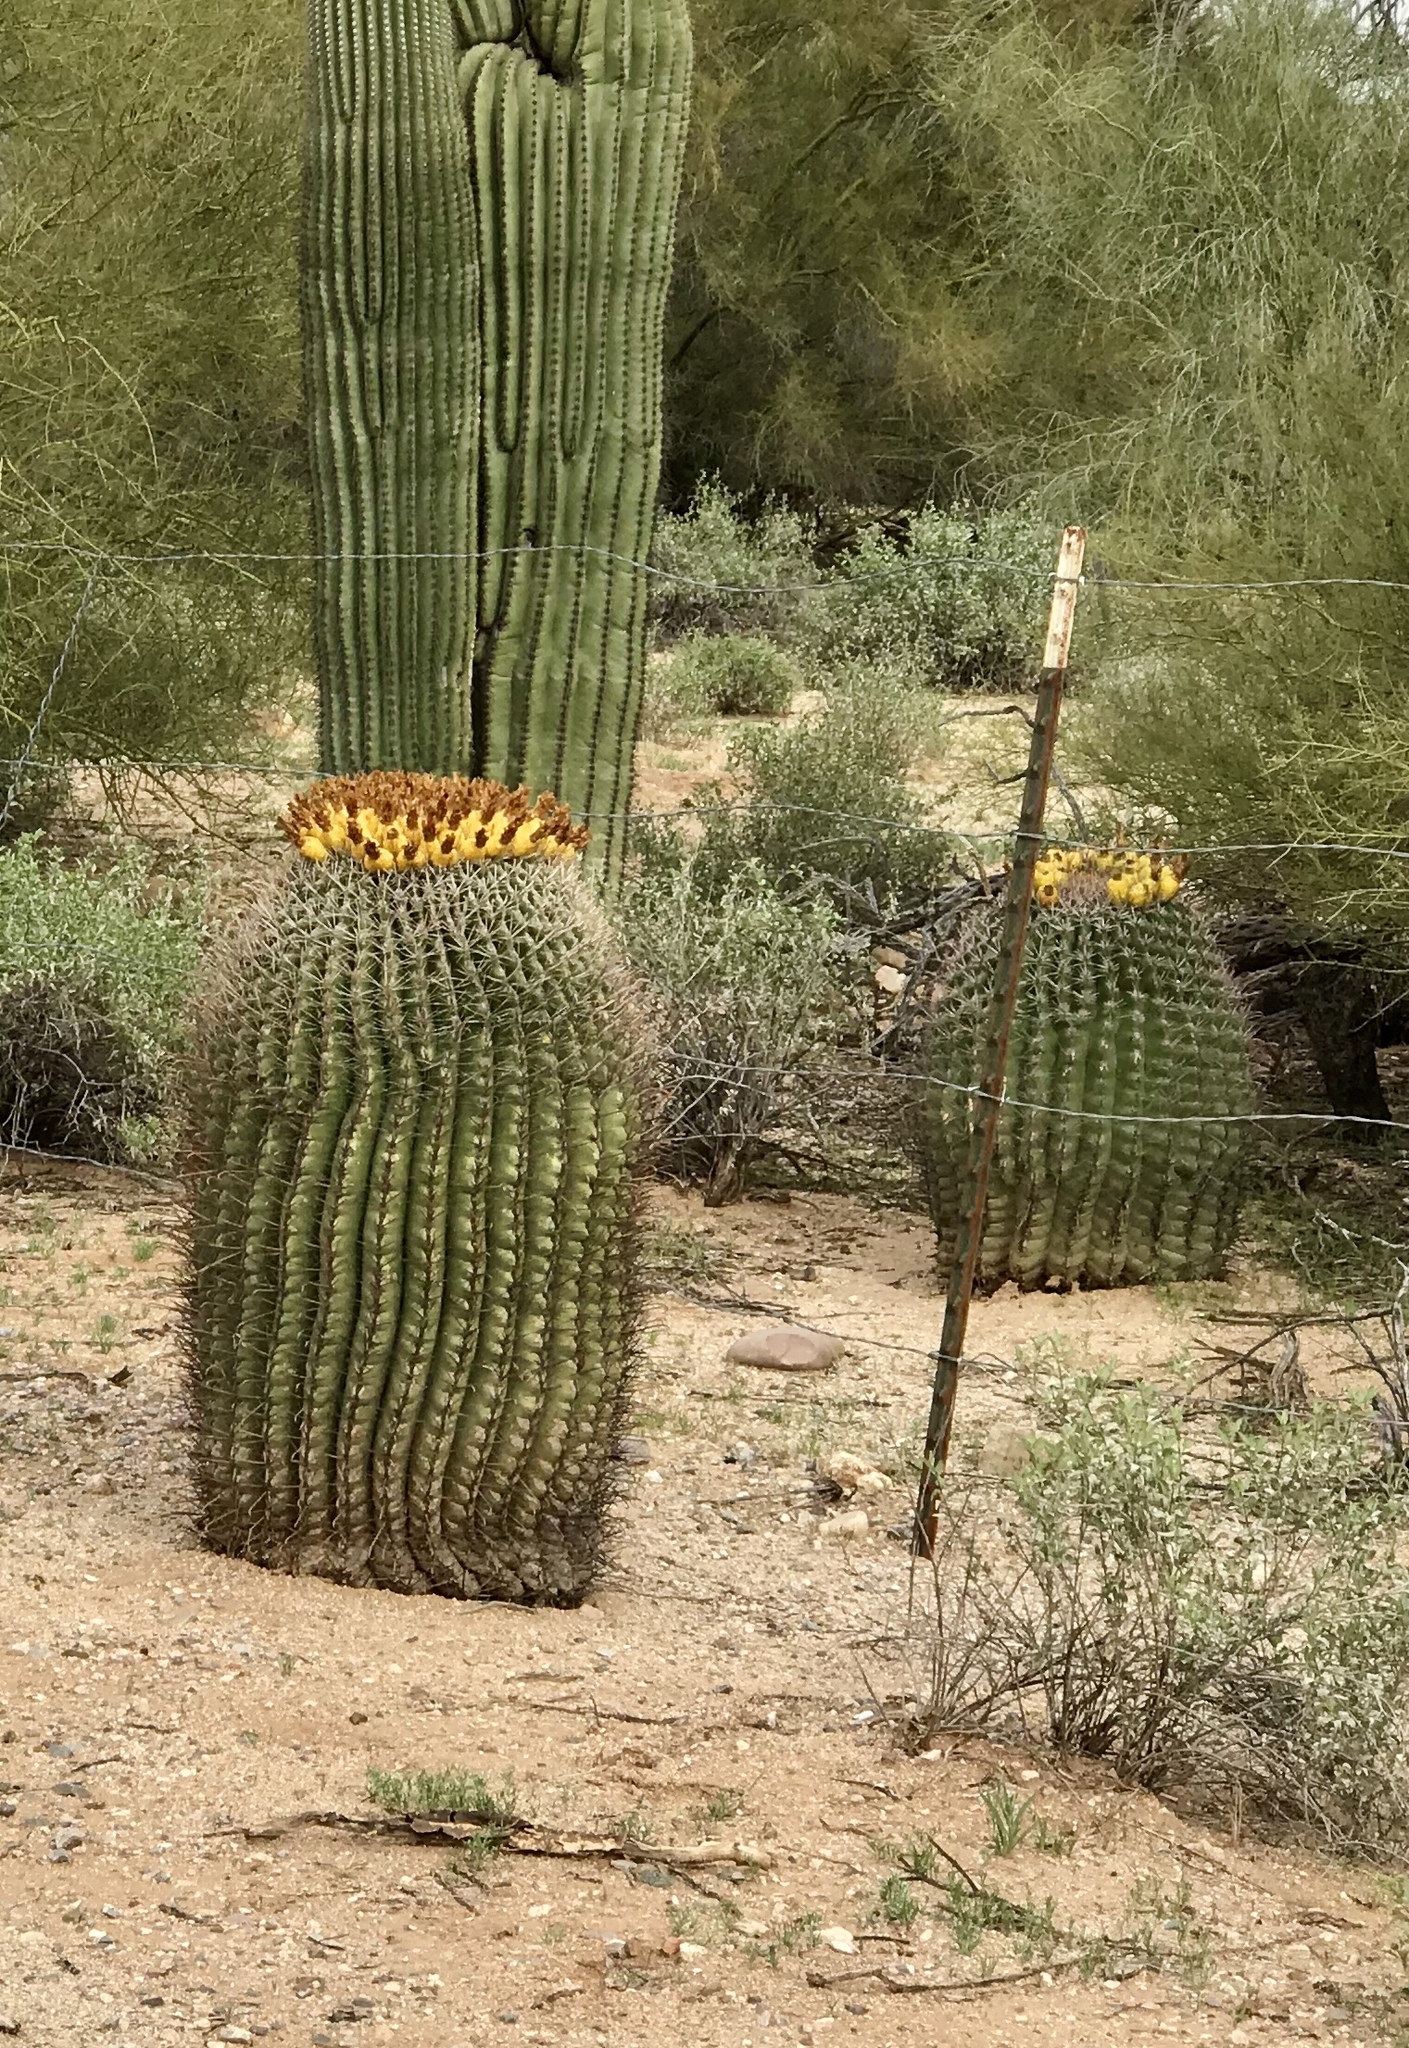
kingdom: Plantae
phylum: Tracheophyta
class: Magnoliopsida
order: Caryophyllales
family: Cactaceae
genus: Ferocactus
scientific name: Ferocactus wislizeni
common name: Candy barrel cactus
